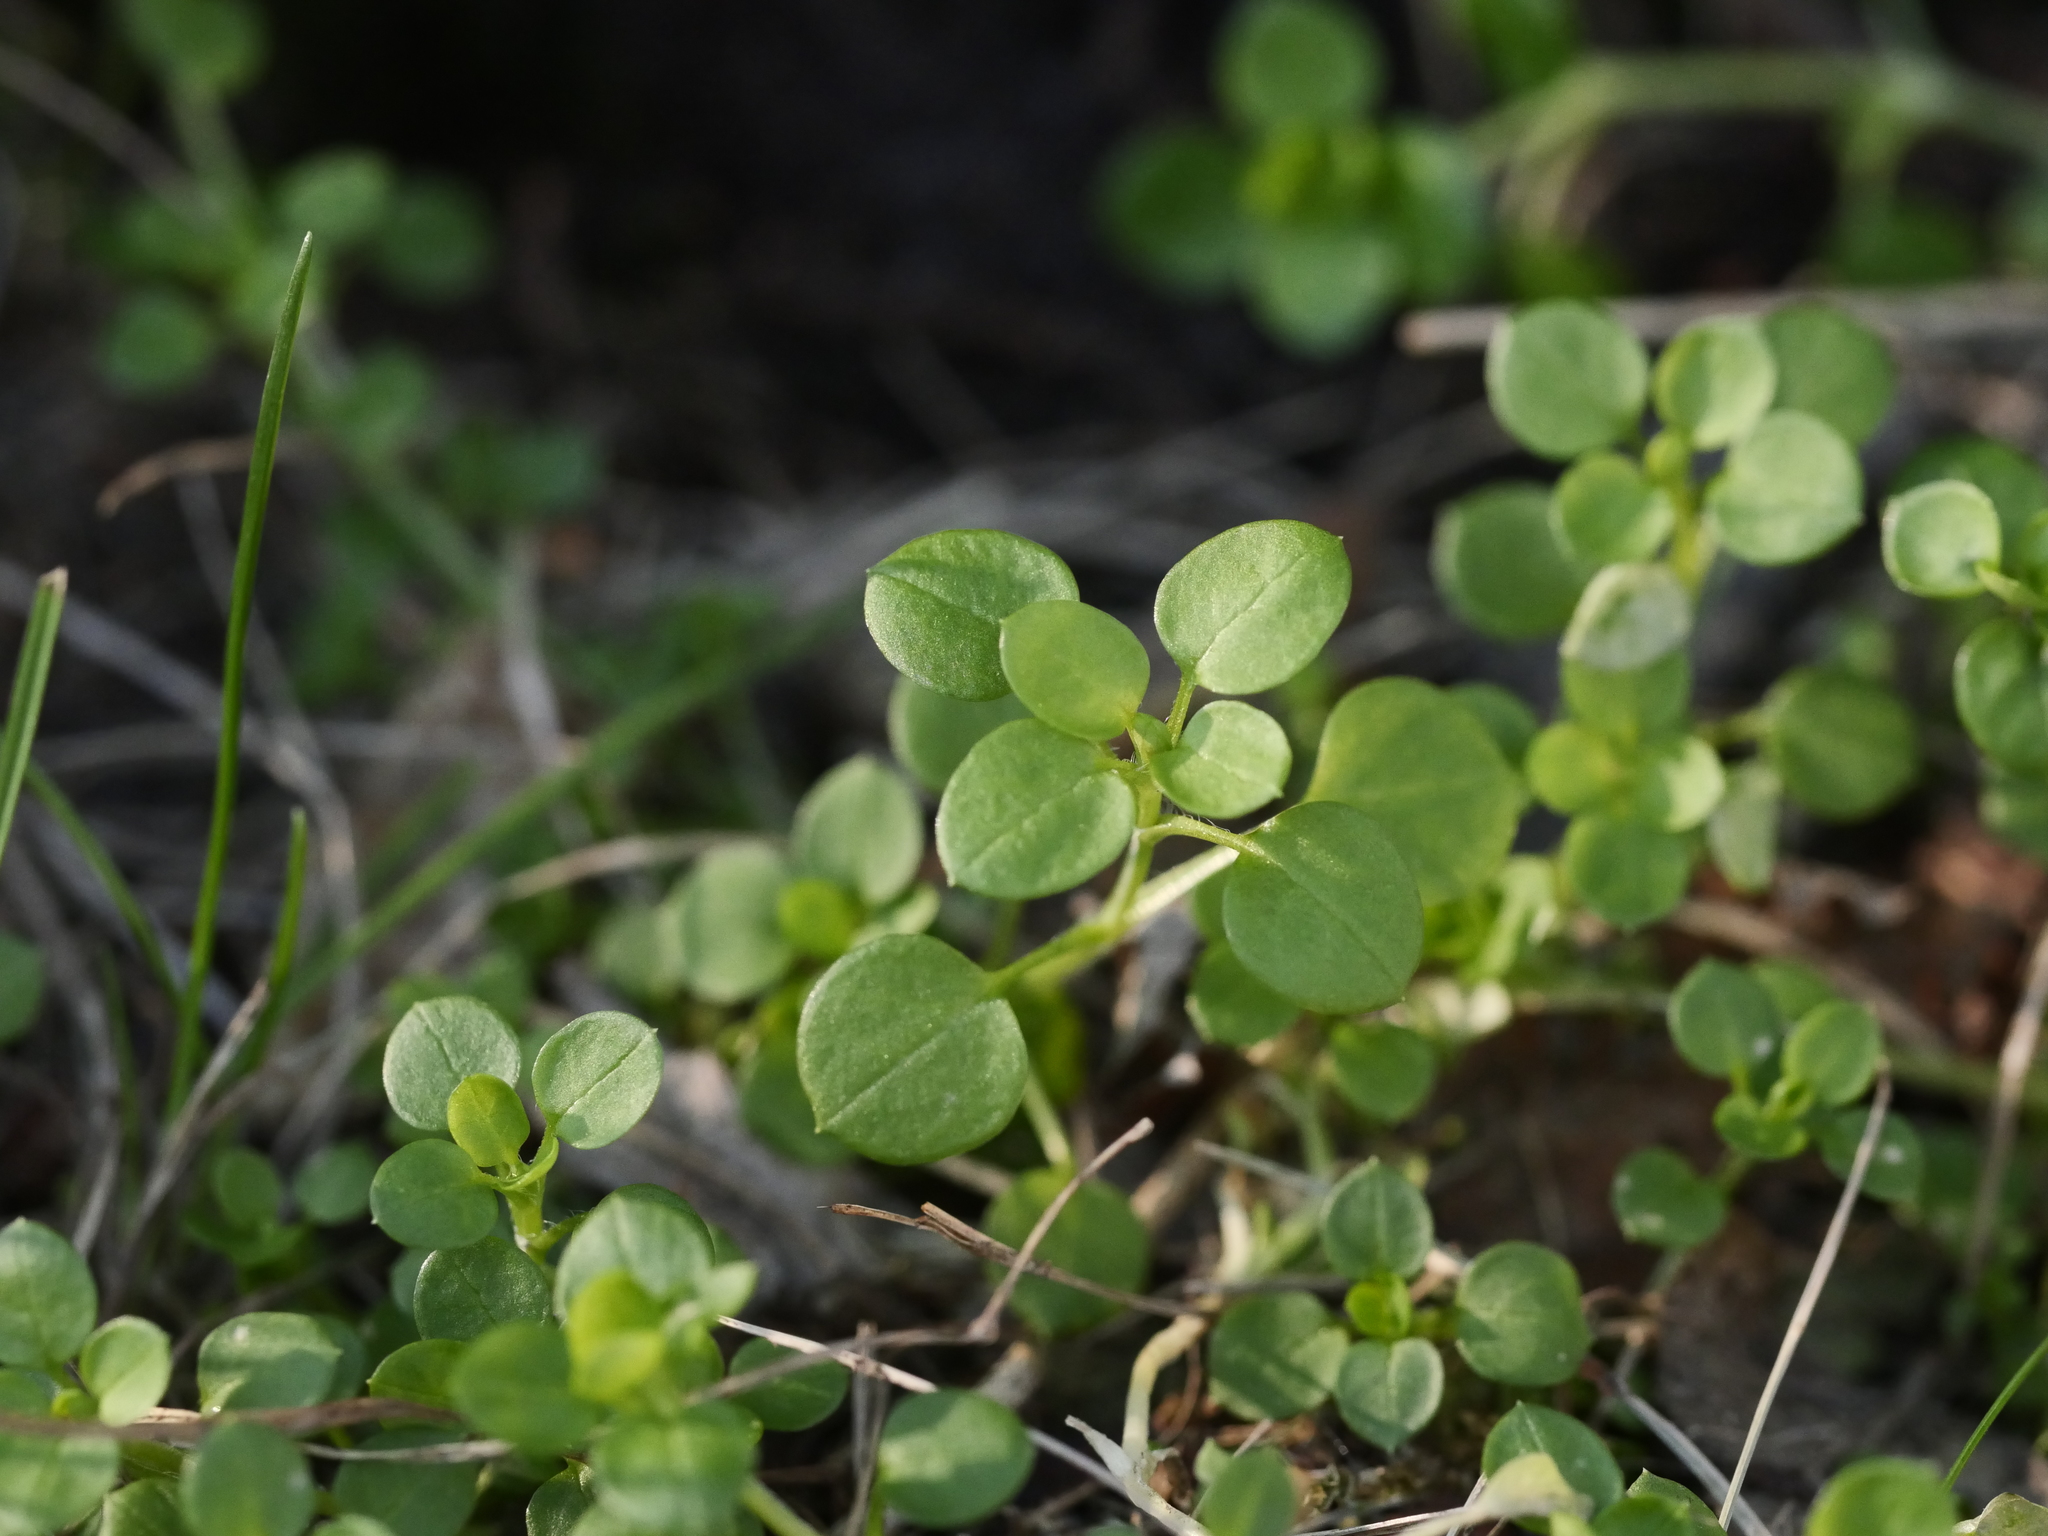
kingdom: Plantae
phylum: Tracheophyta
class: Magnoliopsida
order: Caryophyllales
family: Caryophyllaceae
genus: Stellaria
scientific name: Stellaria media
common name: Common chickweed
